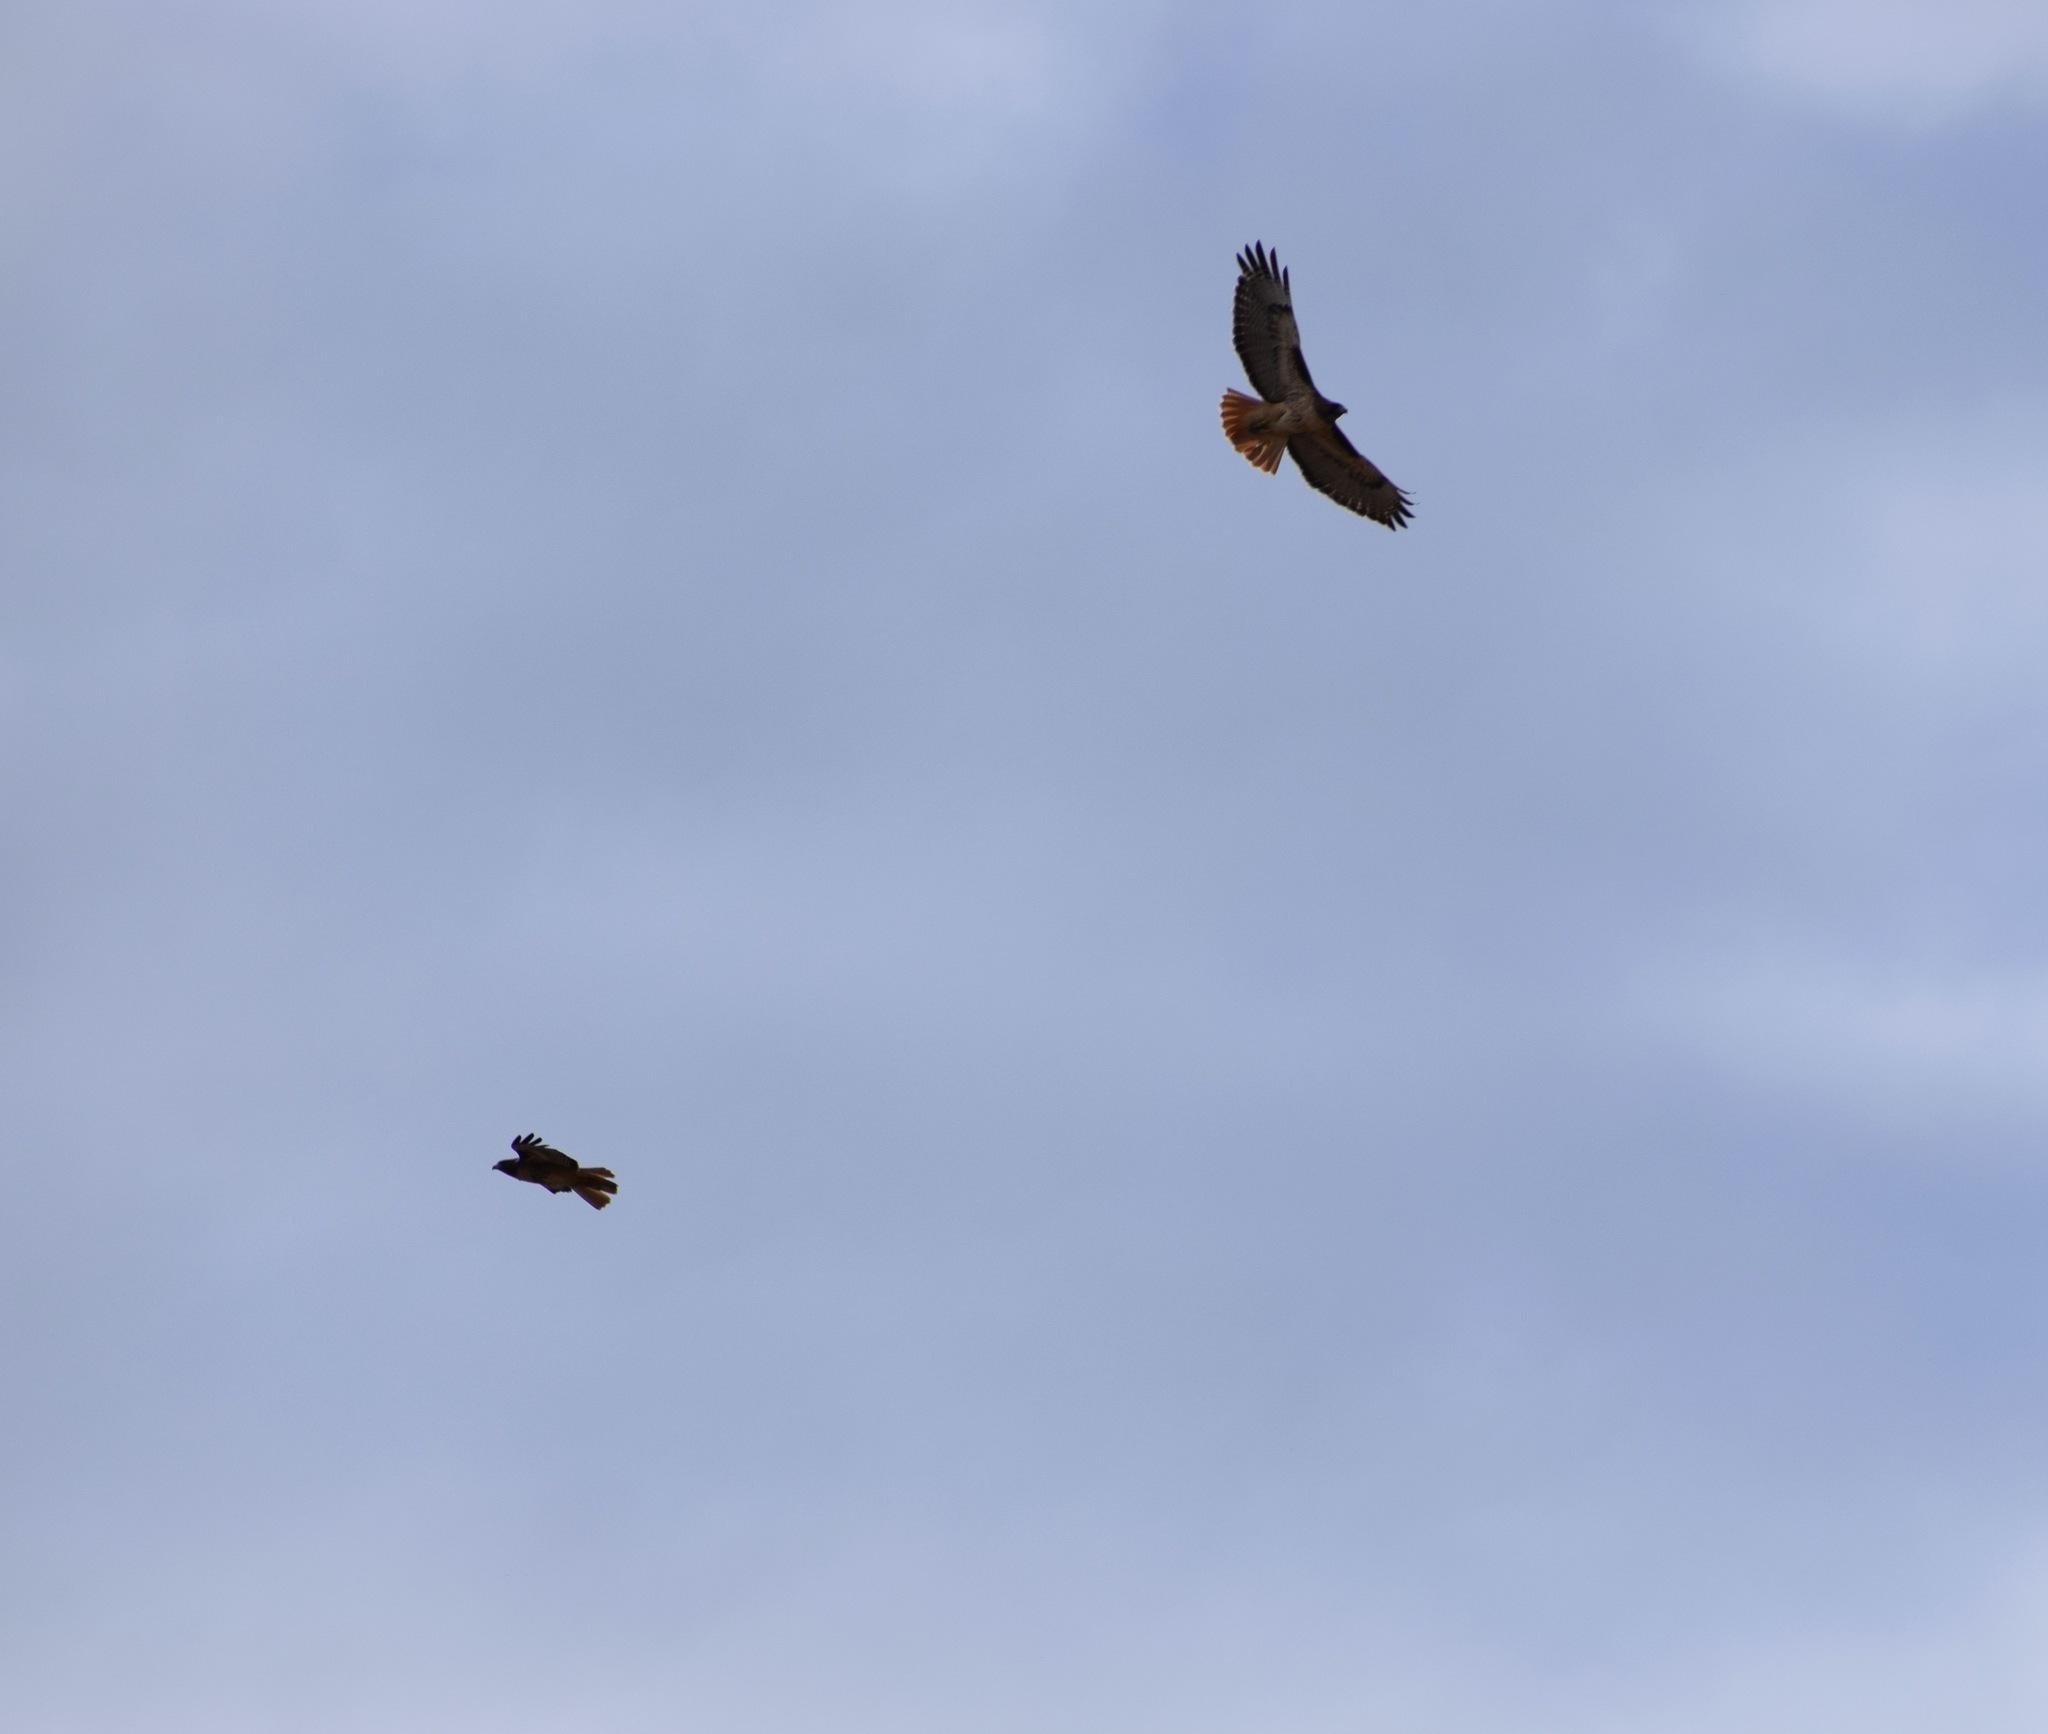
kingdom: Animalia
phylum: Chordata
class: Aves
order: Accipitriformes
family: Accipitridae
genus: Buteo
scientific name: Buteo jamaicensis
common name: Red-tailed hawk
